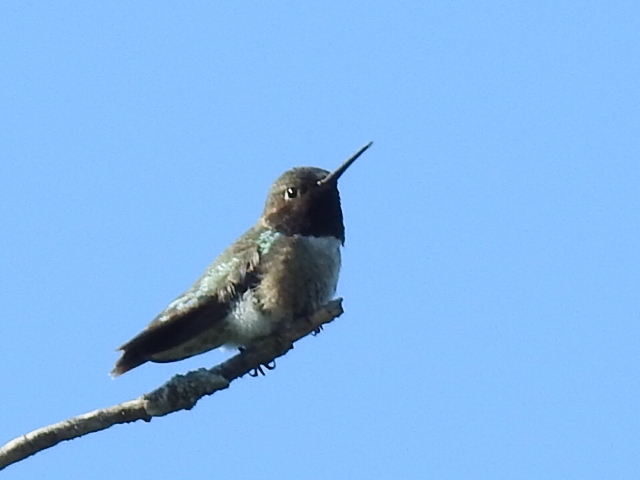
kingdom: Animalia
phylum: Chordata
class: Aves
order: Apodiformes
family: Trochilidae
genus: Archilochus
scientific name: Archilochus alexandri
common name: Black-chinned hummingbird
